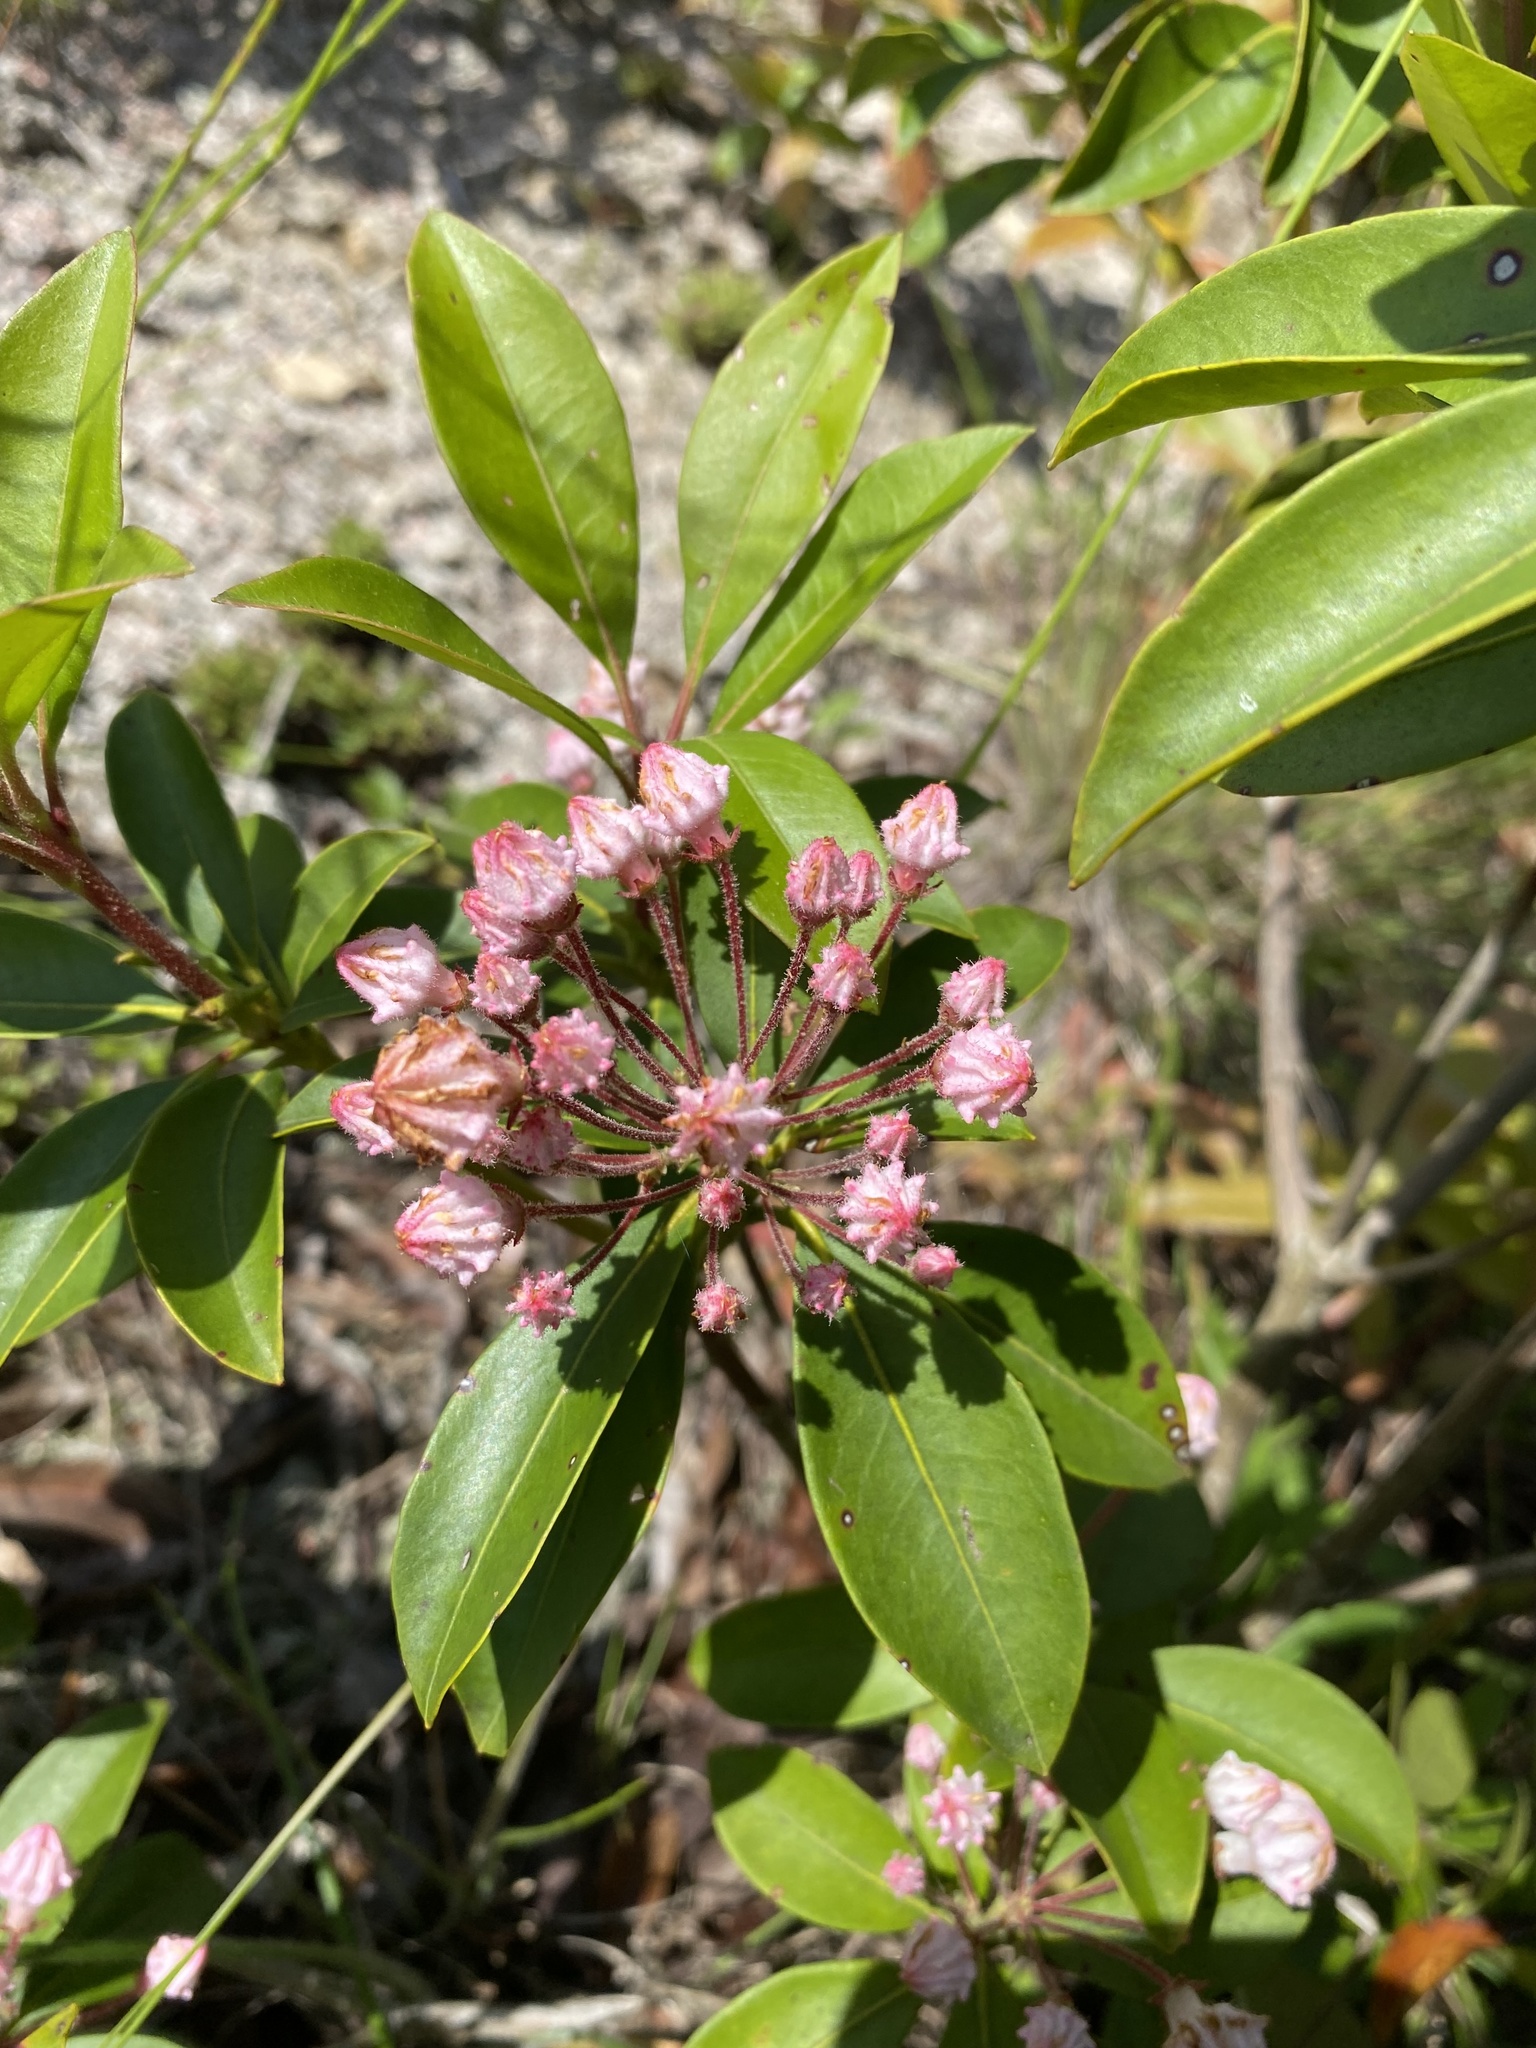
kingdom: Plantae
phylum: Tracheophyta
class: Magnoliopsida
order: Ericales
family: Ericaceae
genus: Kalmia
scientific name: Kalmia latifolia
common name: Mountain-laurel
